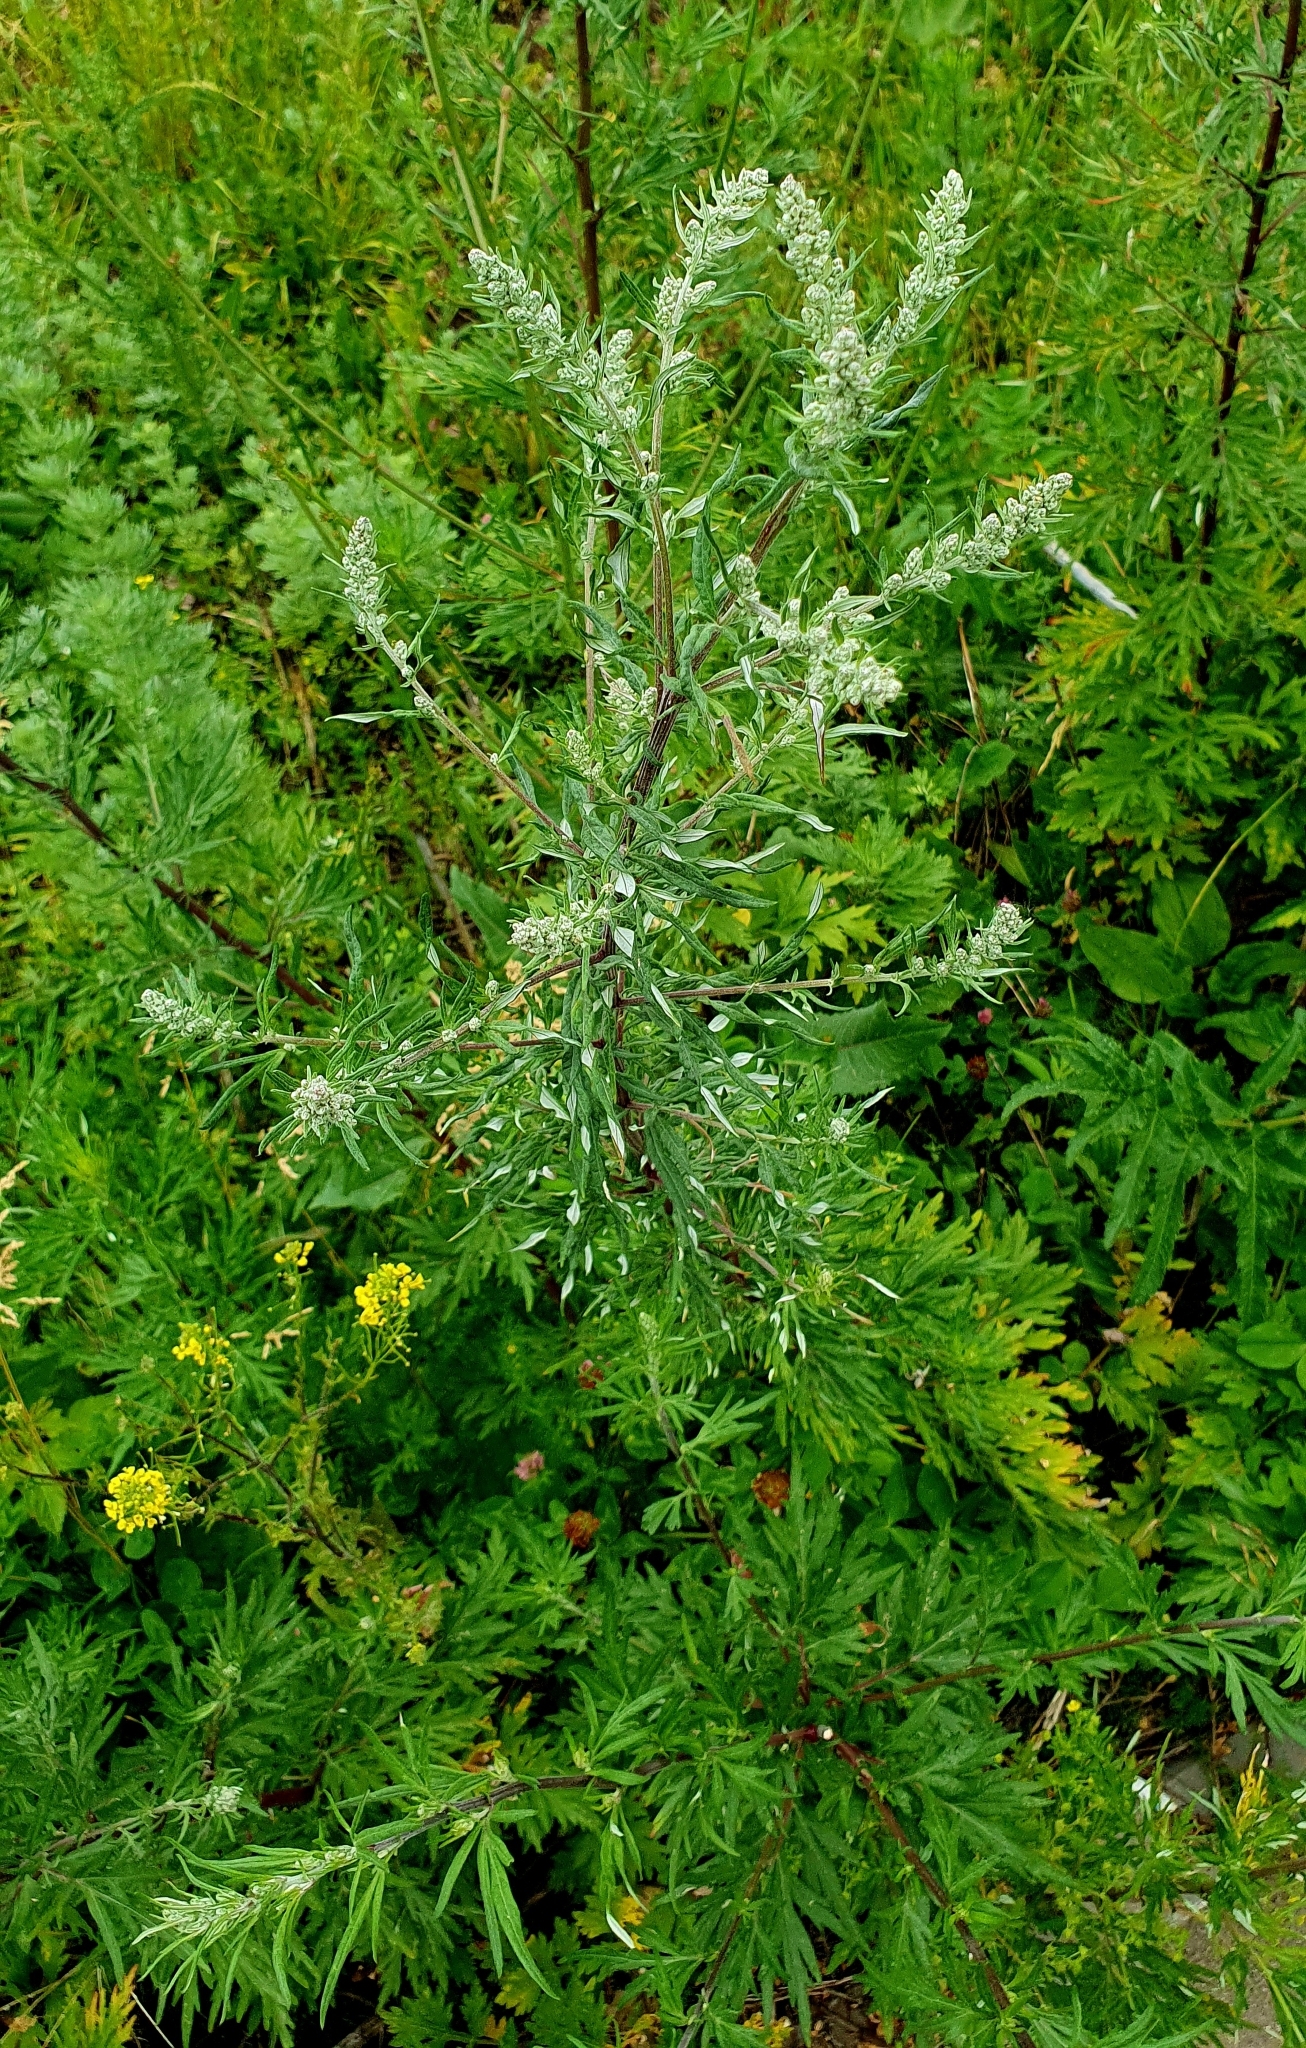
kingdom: Plantae
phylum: Tracheophyta
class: Magnoliopsida
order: Asterales
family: Asteraceae
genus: Artemisia
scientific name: Artemisia vulgaris
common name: Mugwort
